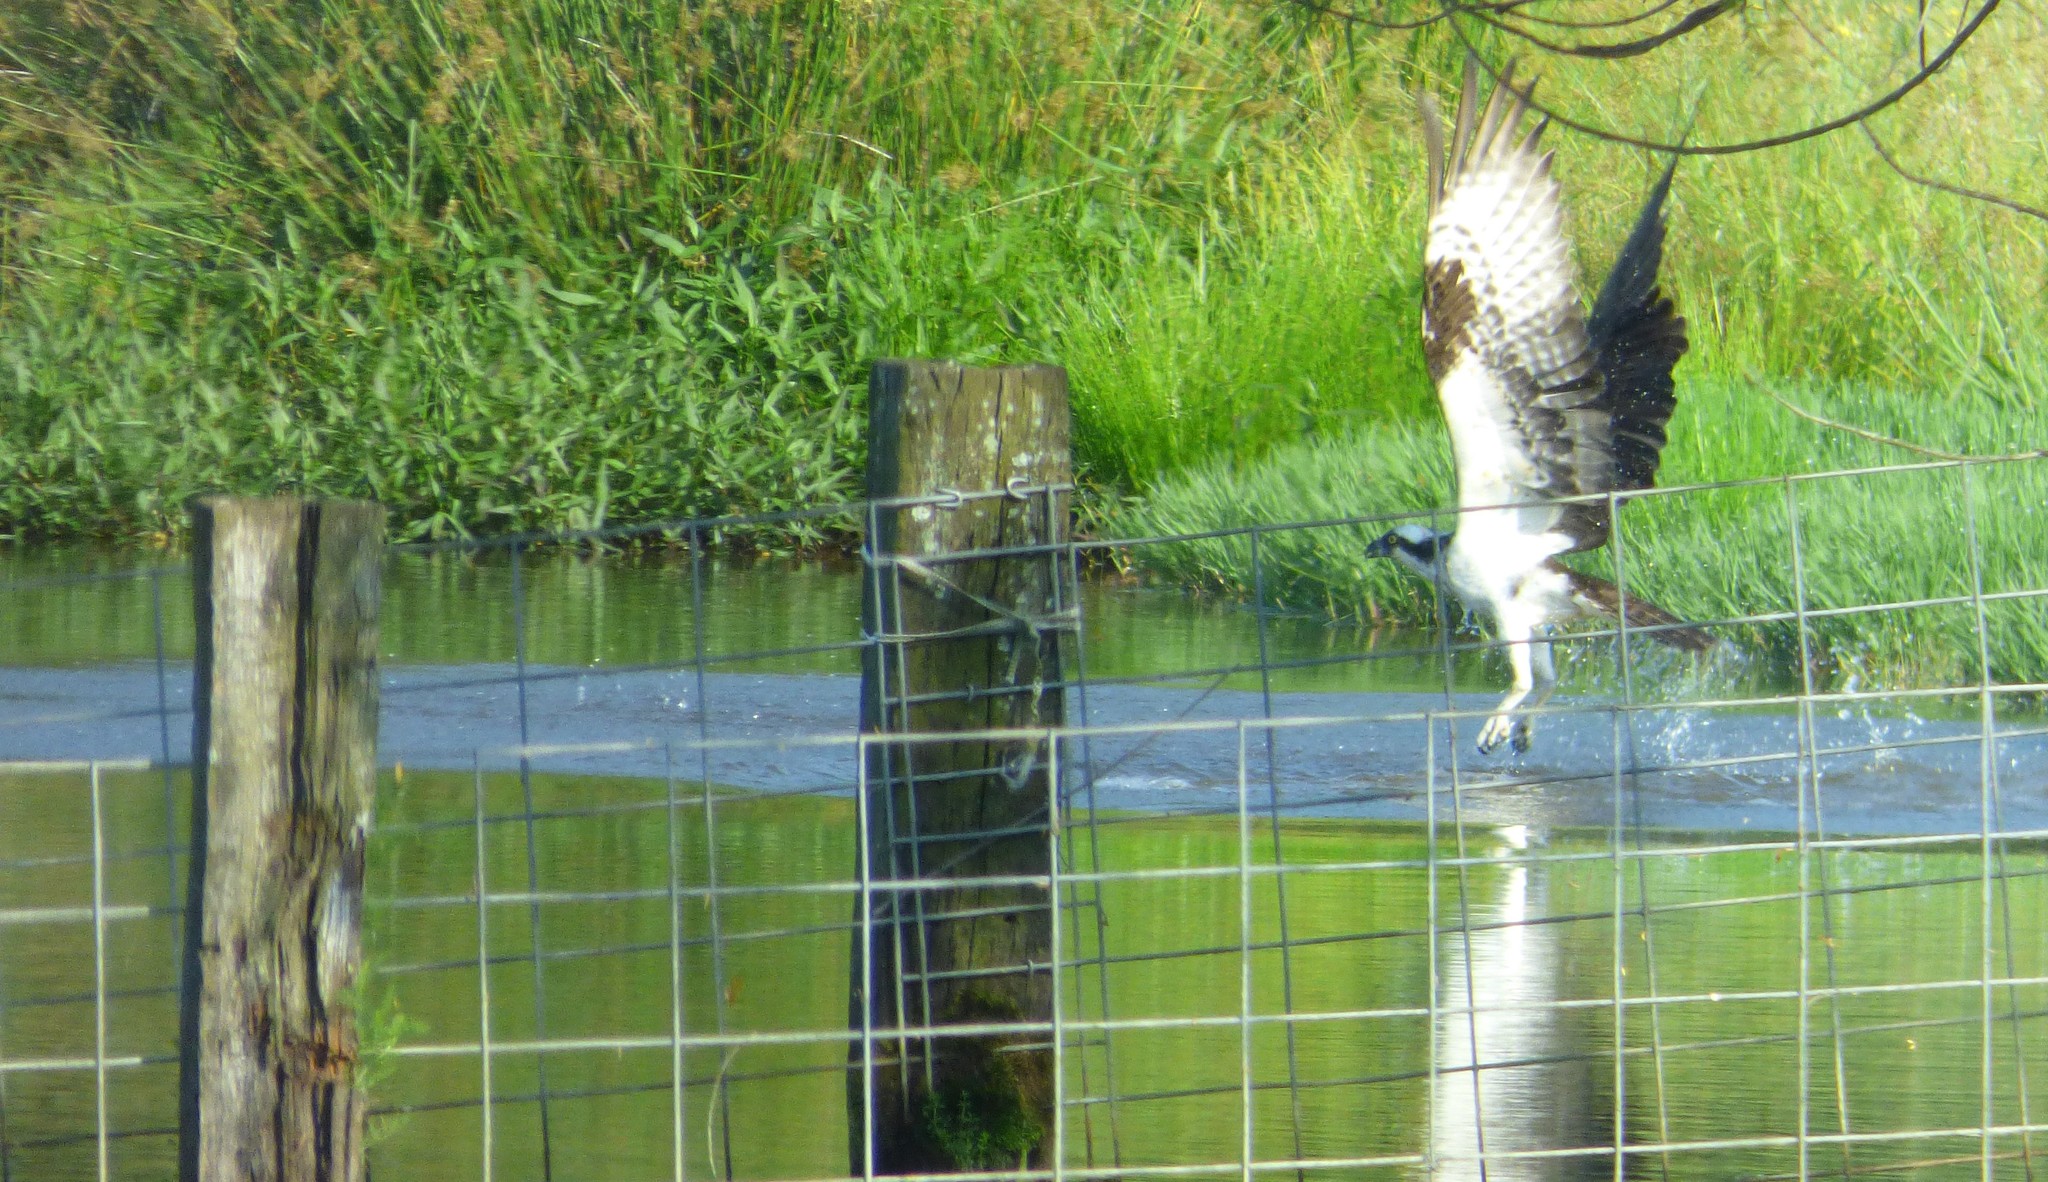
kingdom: Animalia
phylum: Chordata
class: Aves
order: Accipitriformes
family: Pandionidae
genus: Pandion
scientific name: Pandion haliaetus
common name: Osprey
